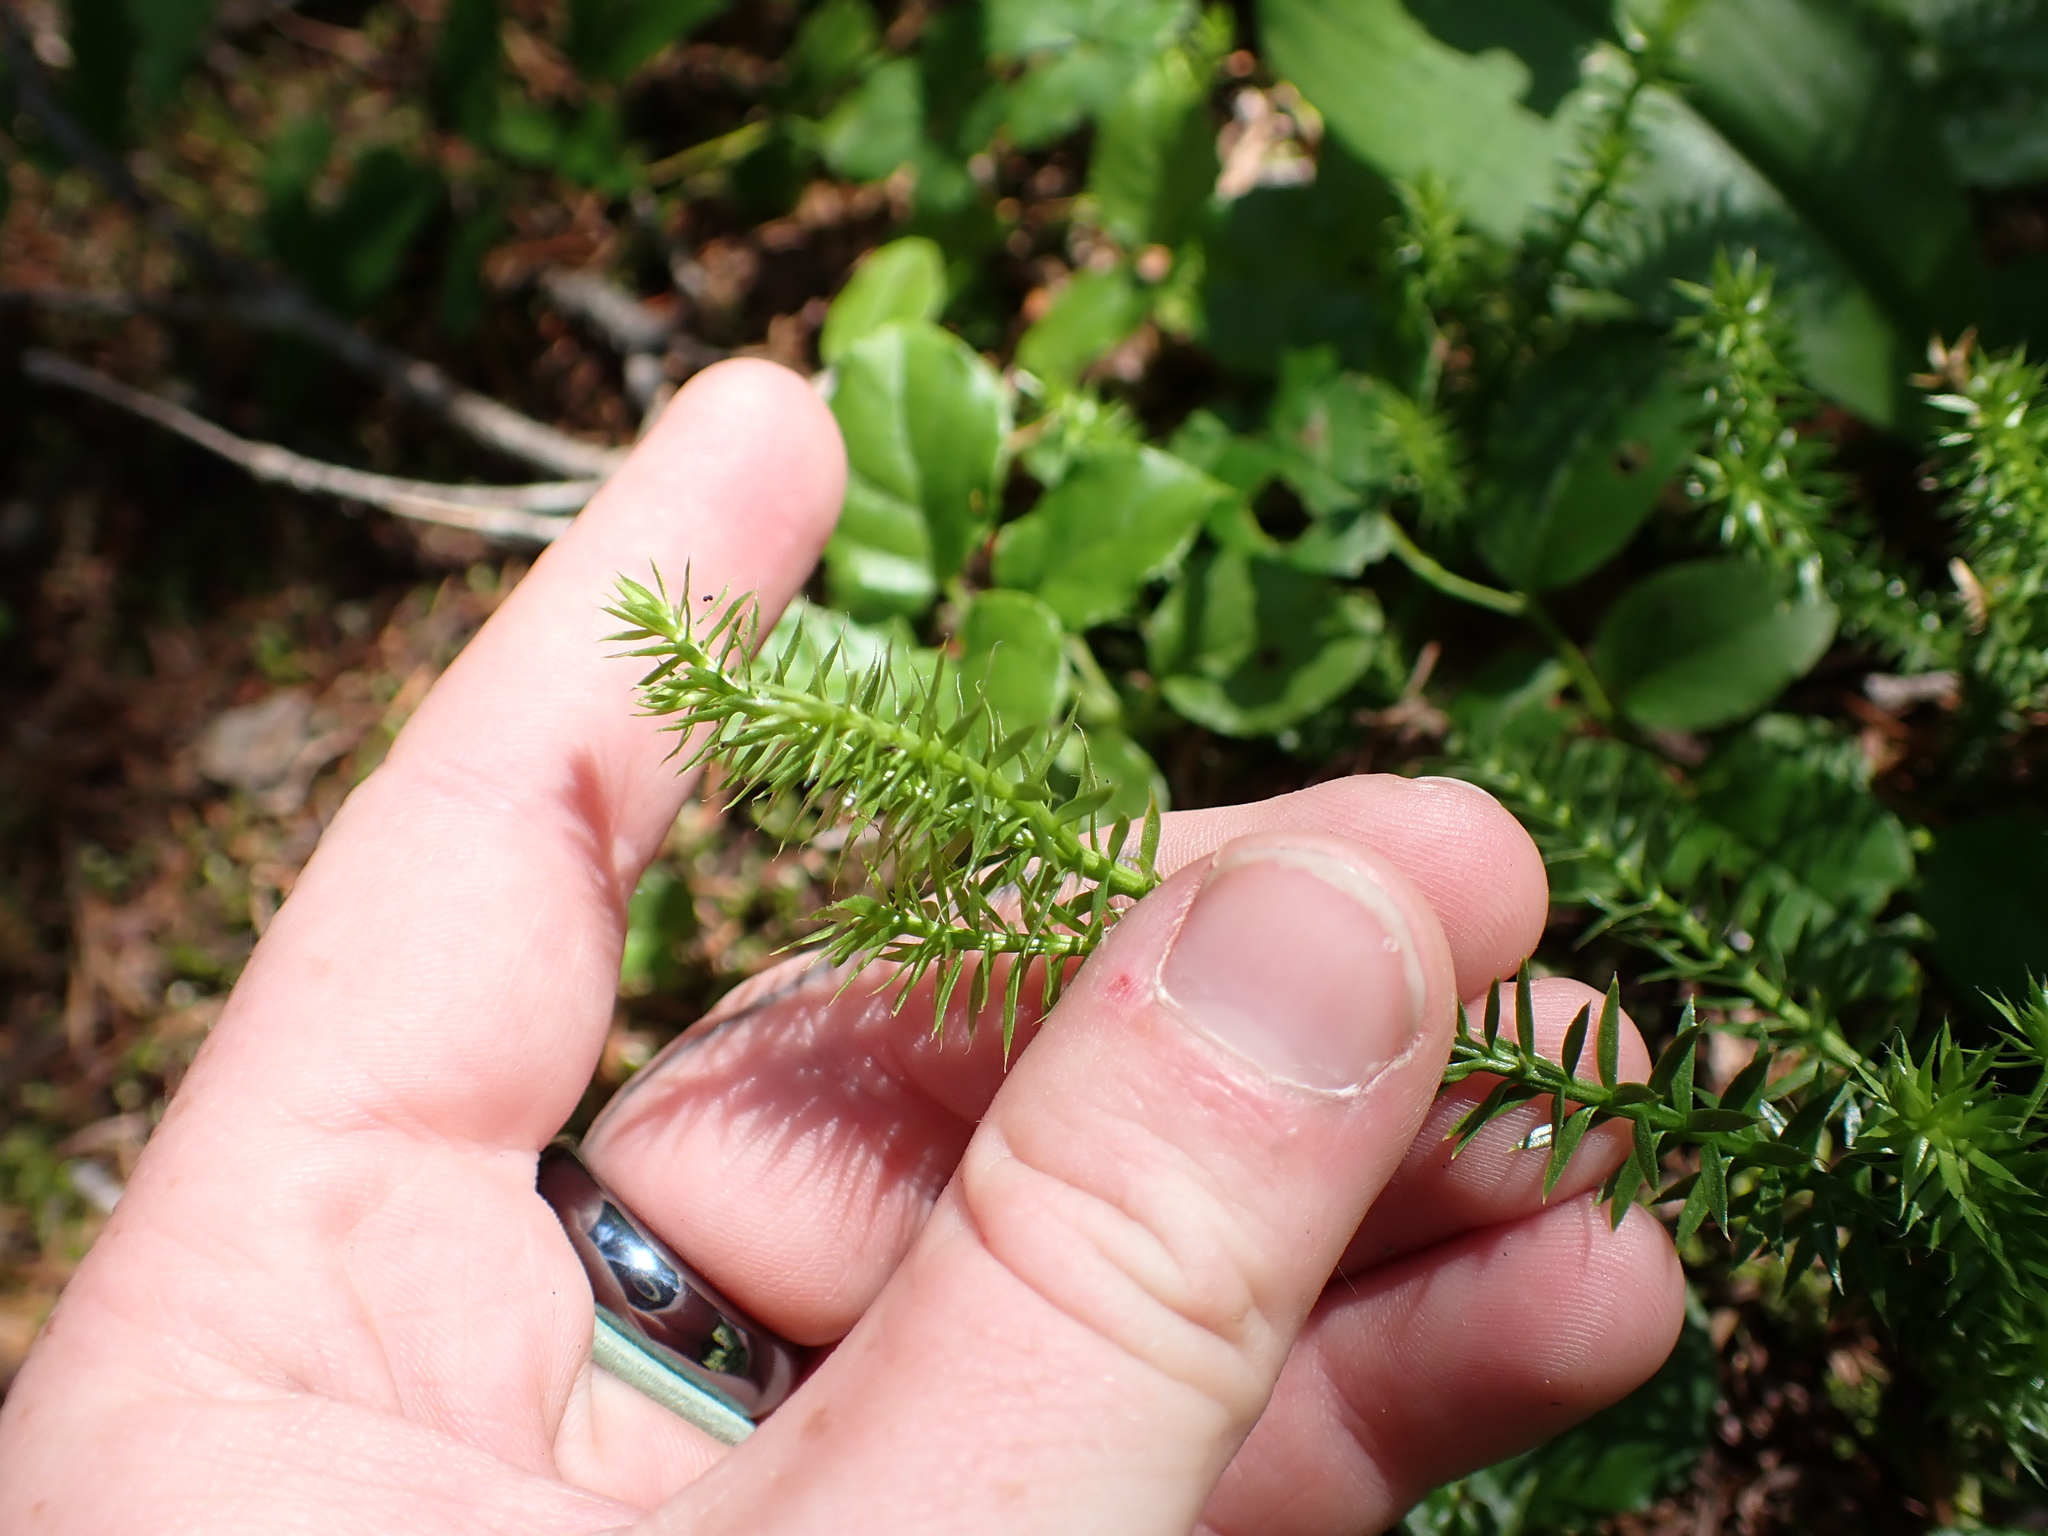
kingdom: Plantae
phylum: Tracheophyta
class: Lycopodiopsida
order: Lycopodiales
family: Lycopodiaceae
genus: Spinulum
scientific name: Spinulum annotinum
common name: Interrupted club-moss
